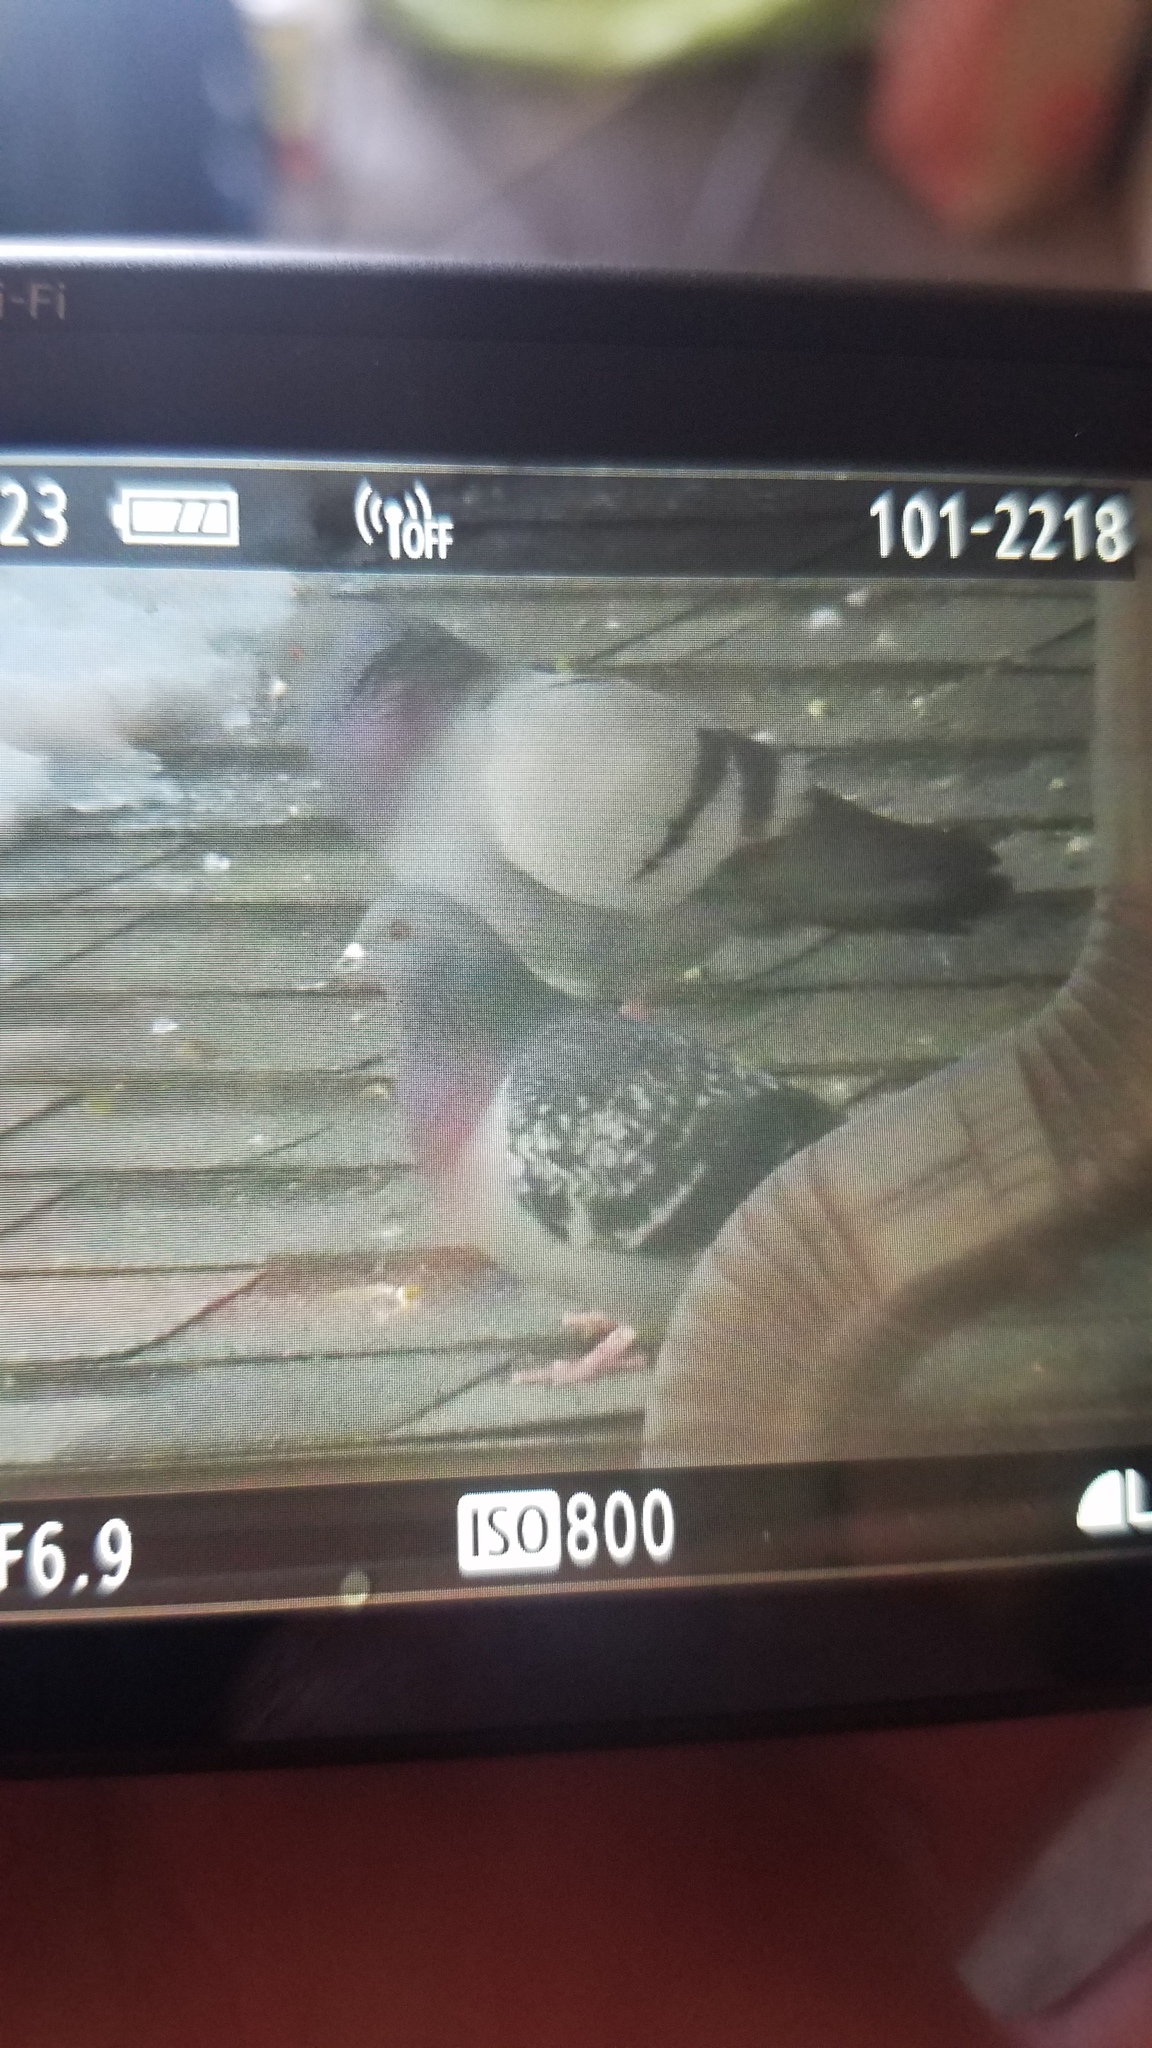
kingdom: Animalia
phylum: Chordata
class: Aves
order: Columbiformes
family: Columbidae
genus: Columba
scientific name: Columba livia
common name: Rock pigeon
